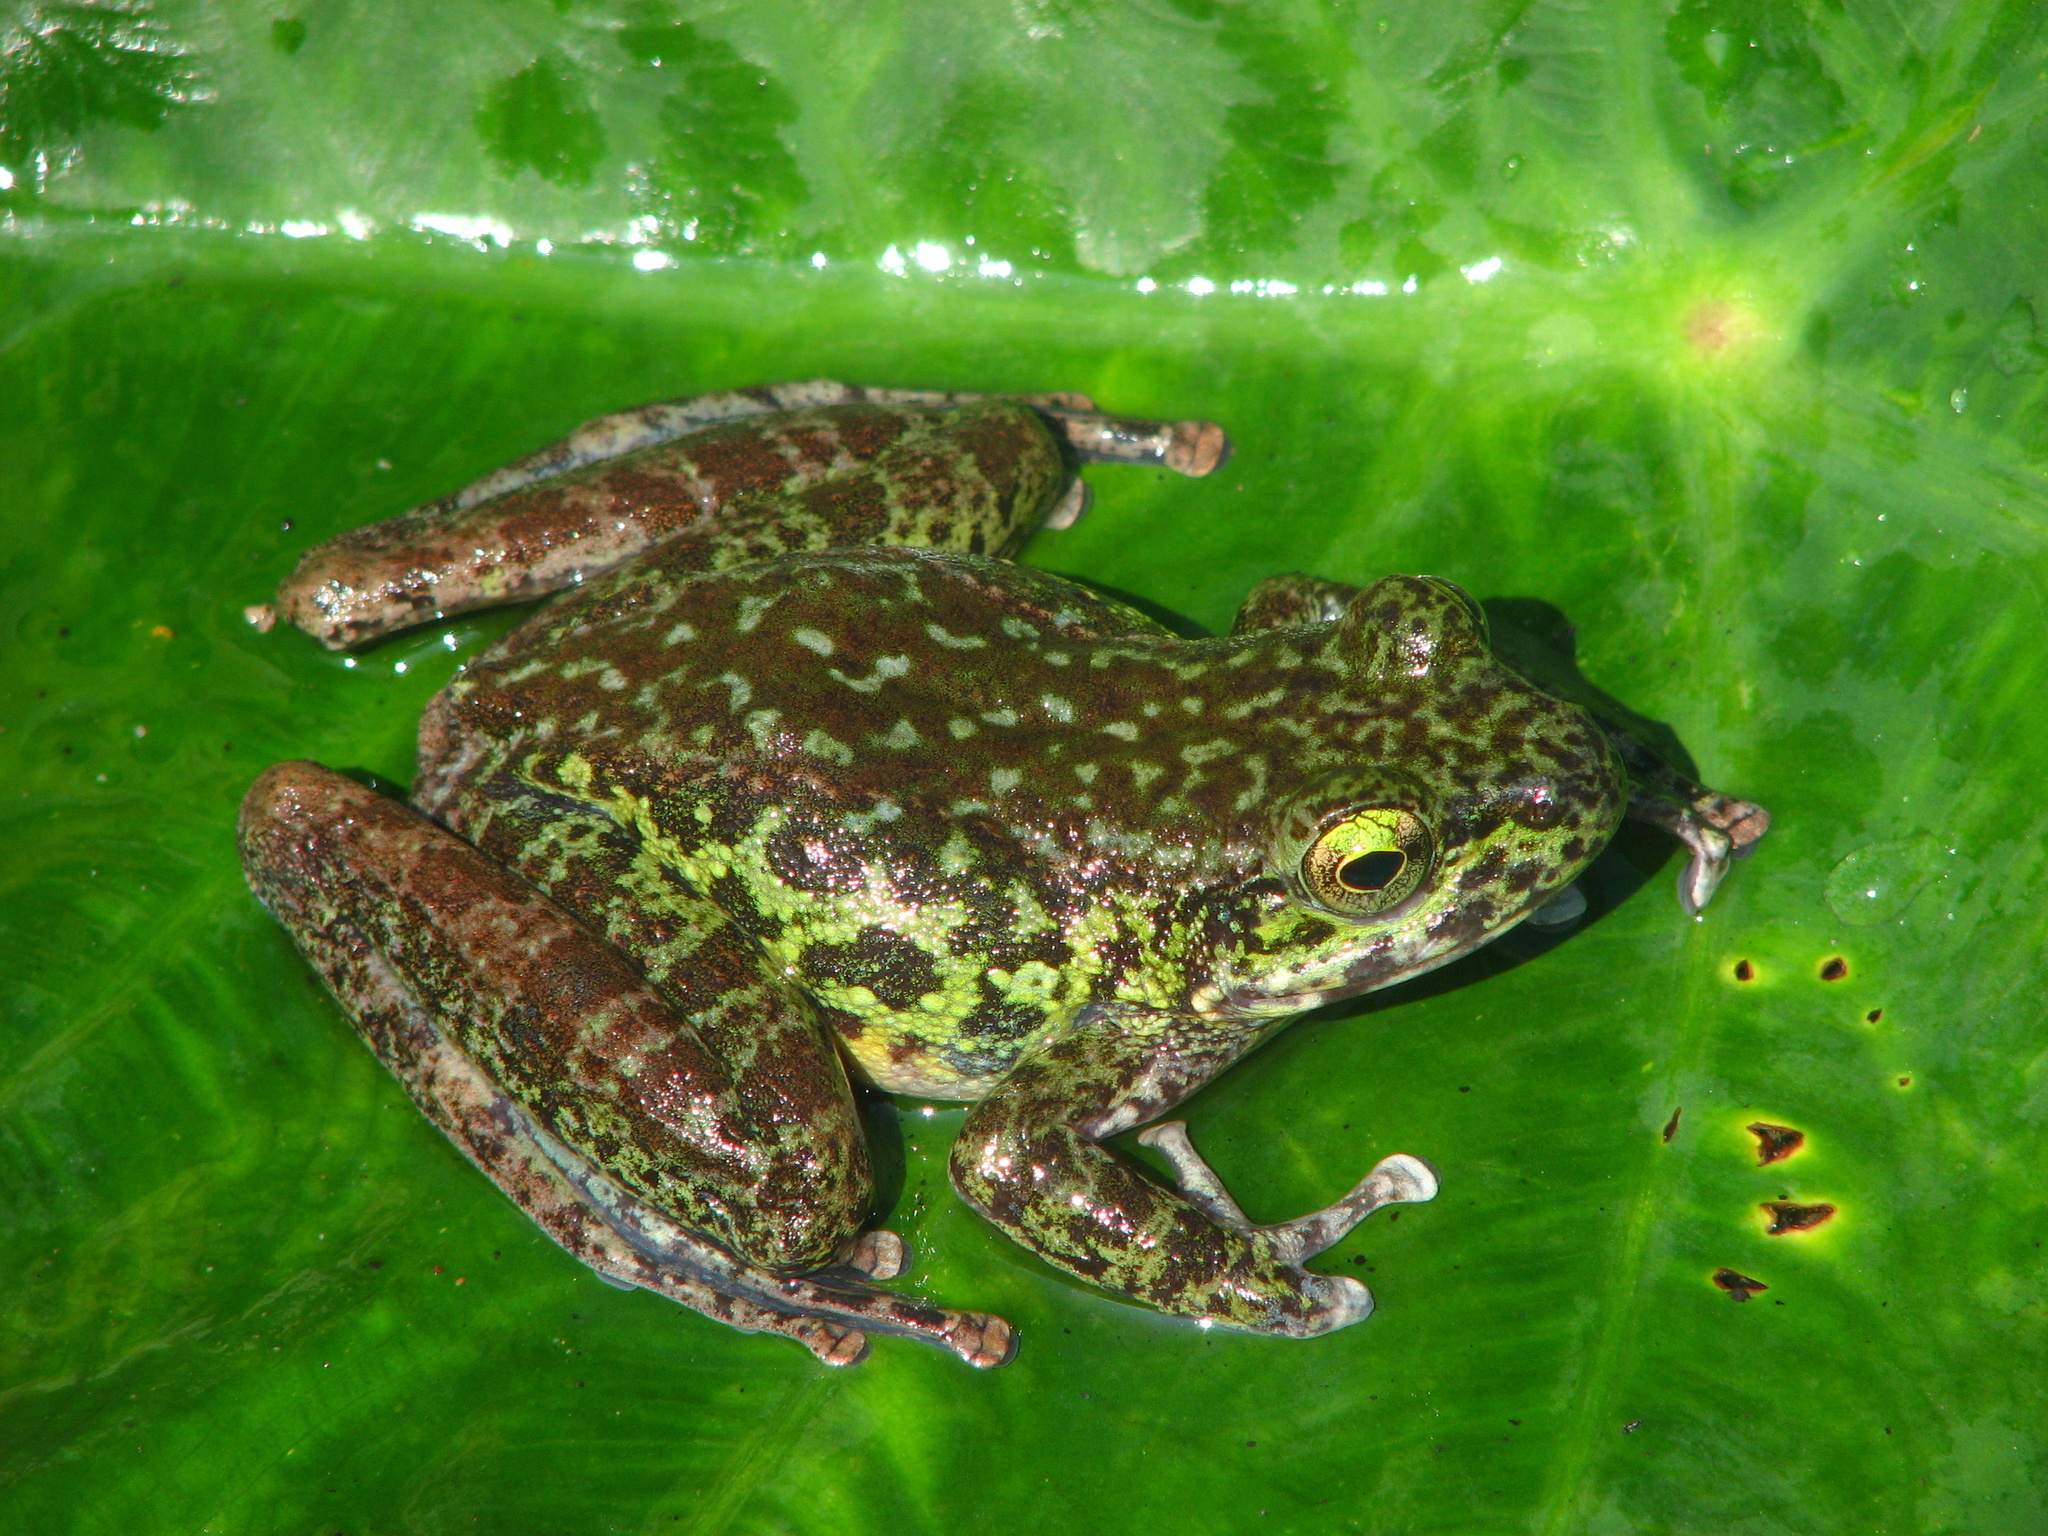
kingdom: Animalia
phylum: Chordata
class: Amphibia
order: Anura
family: Ranidae
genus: Amolops
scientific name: Amolops
